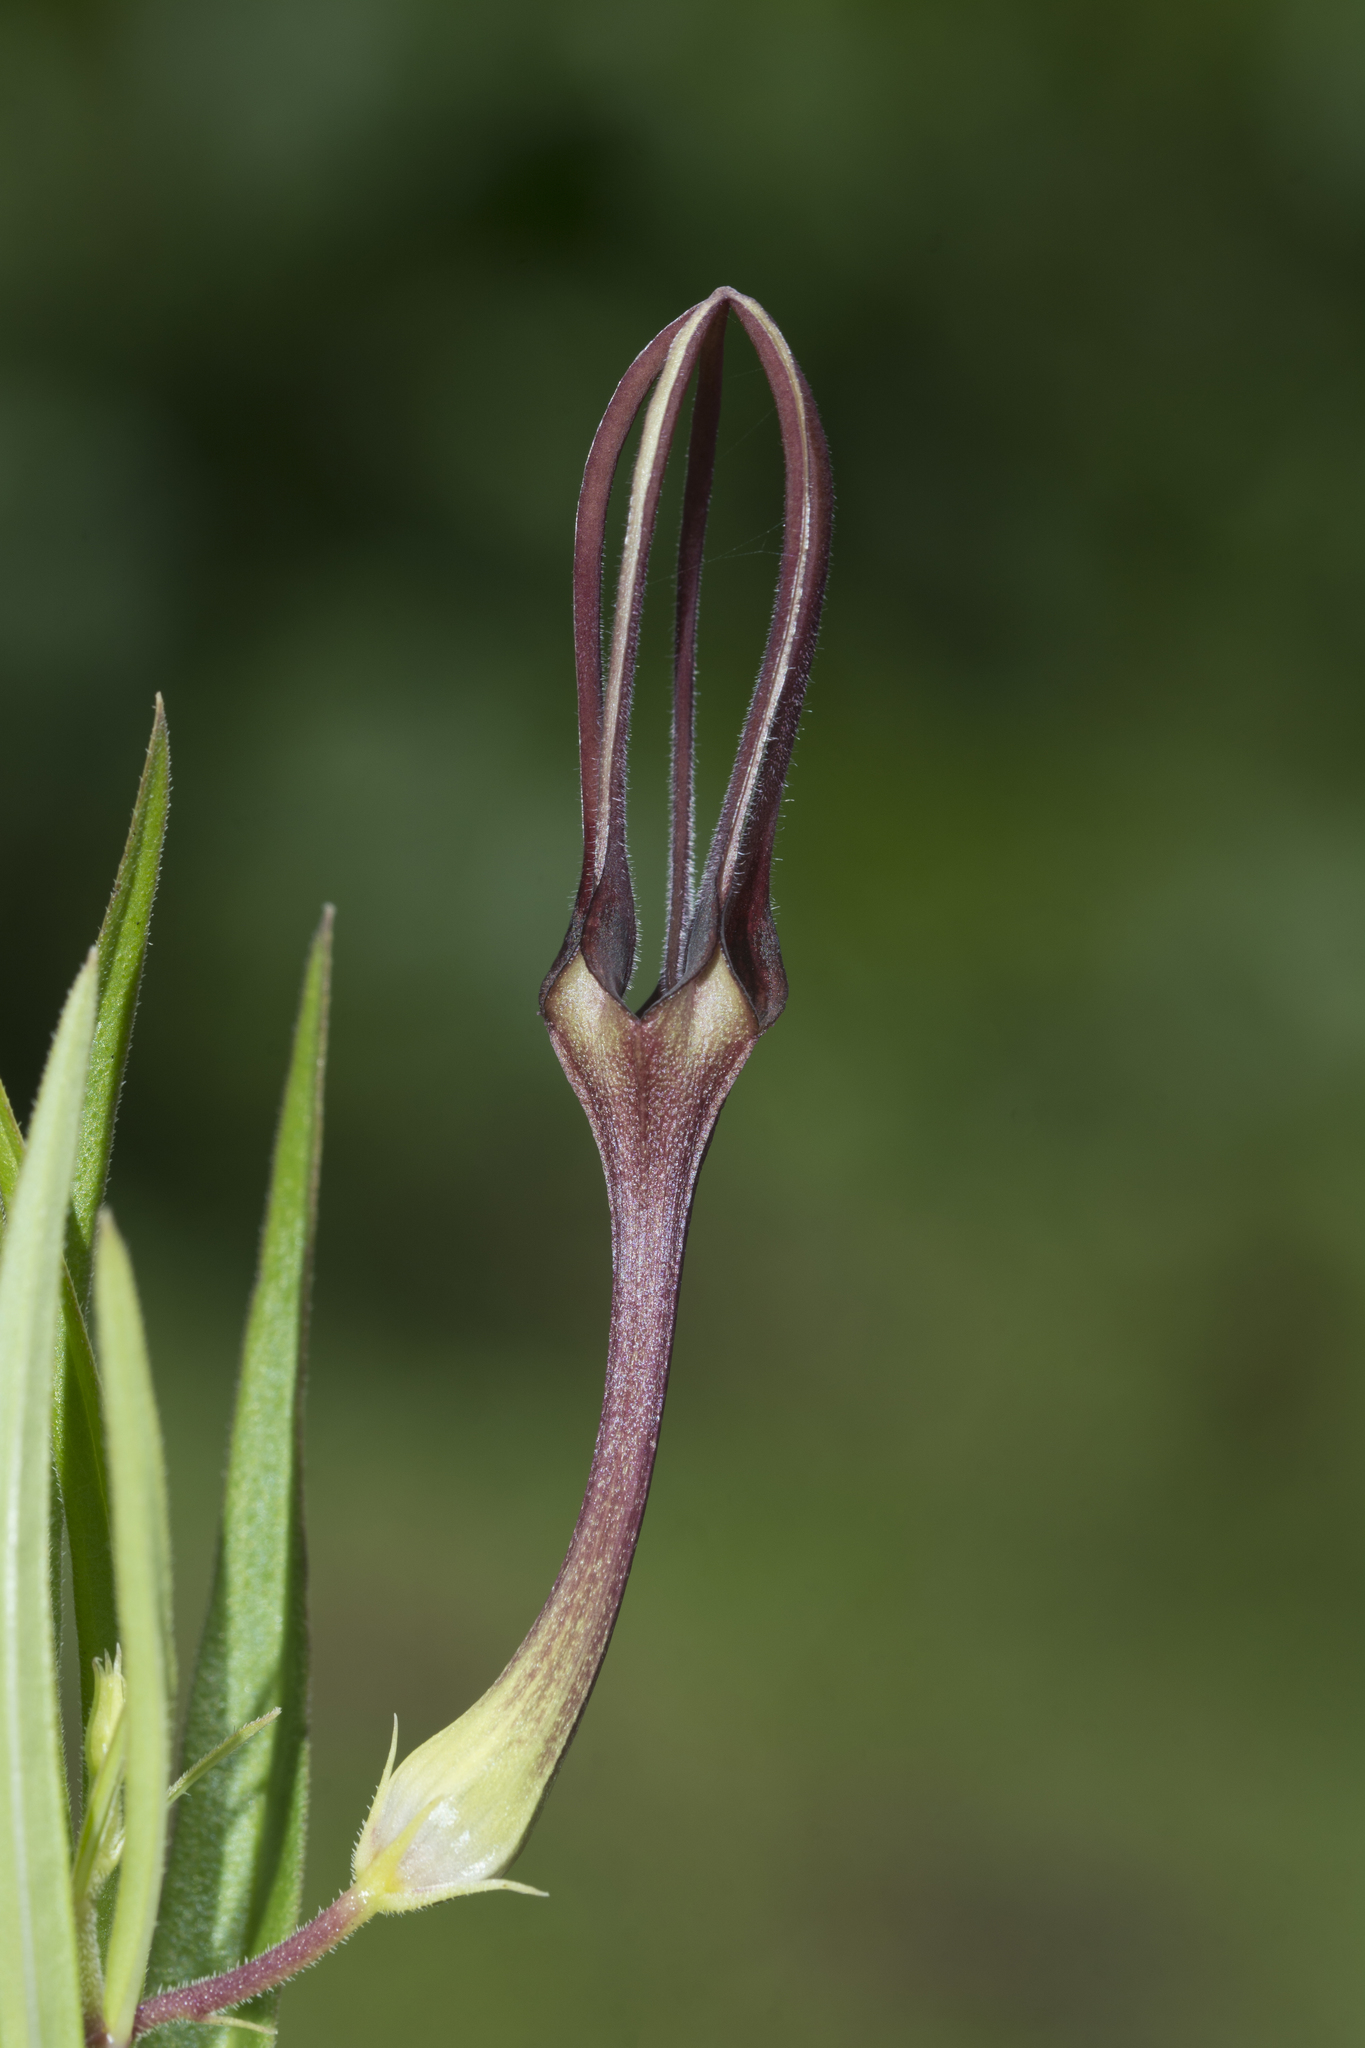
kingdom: Plantae
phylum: Tracheophyta
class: Magnoliopsida
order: Gentianales
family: Apocynaceae
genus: Ceropegia
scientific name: Ceropegia attenuata
